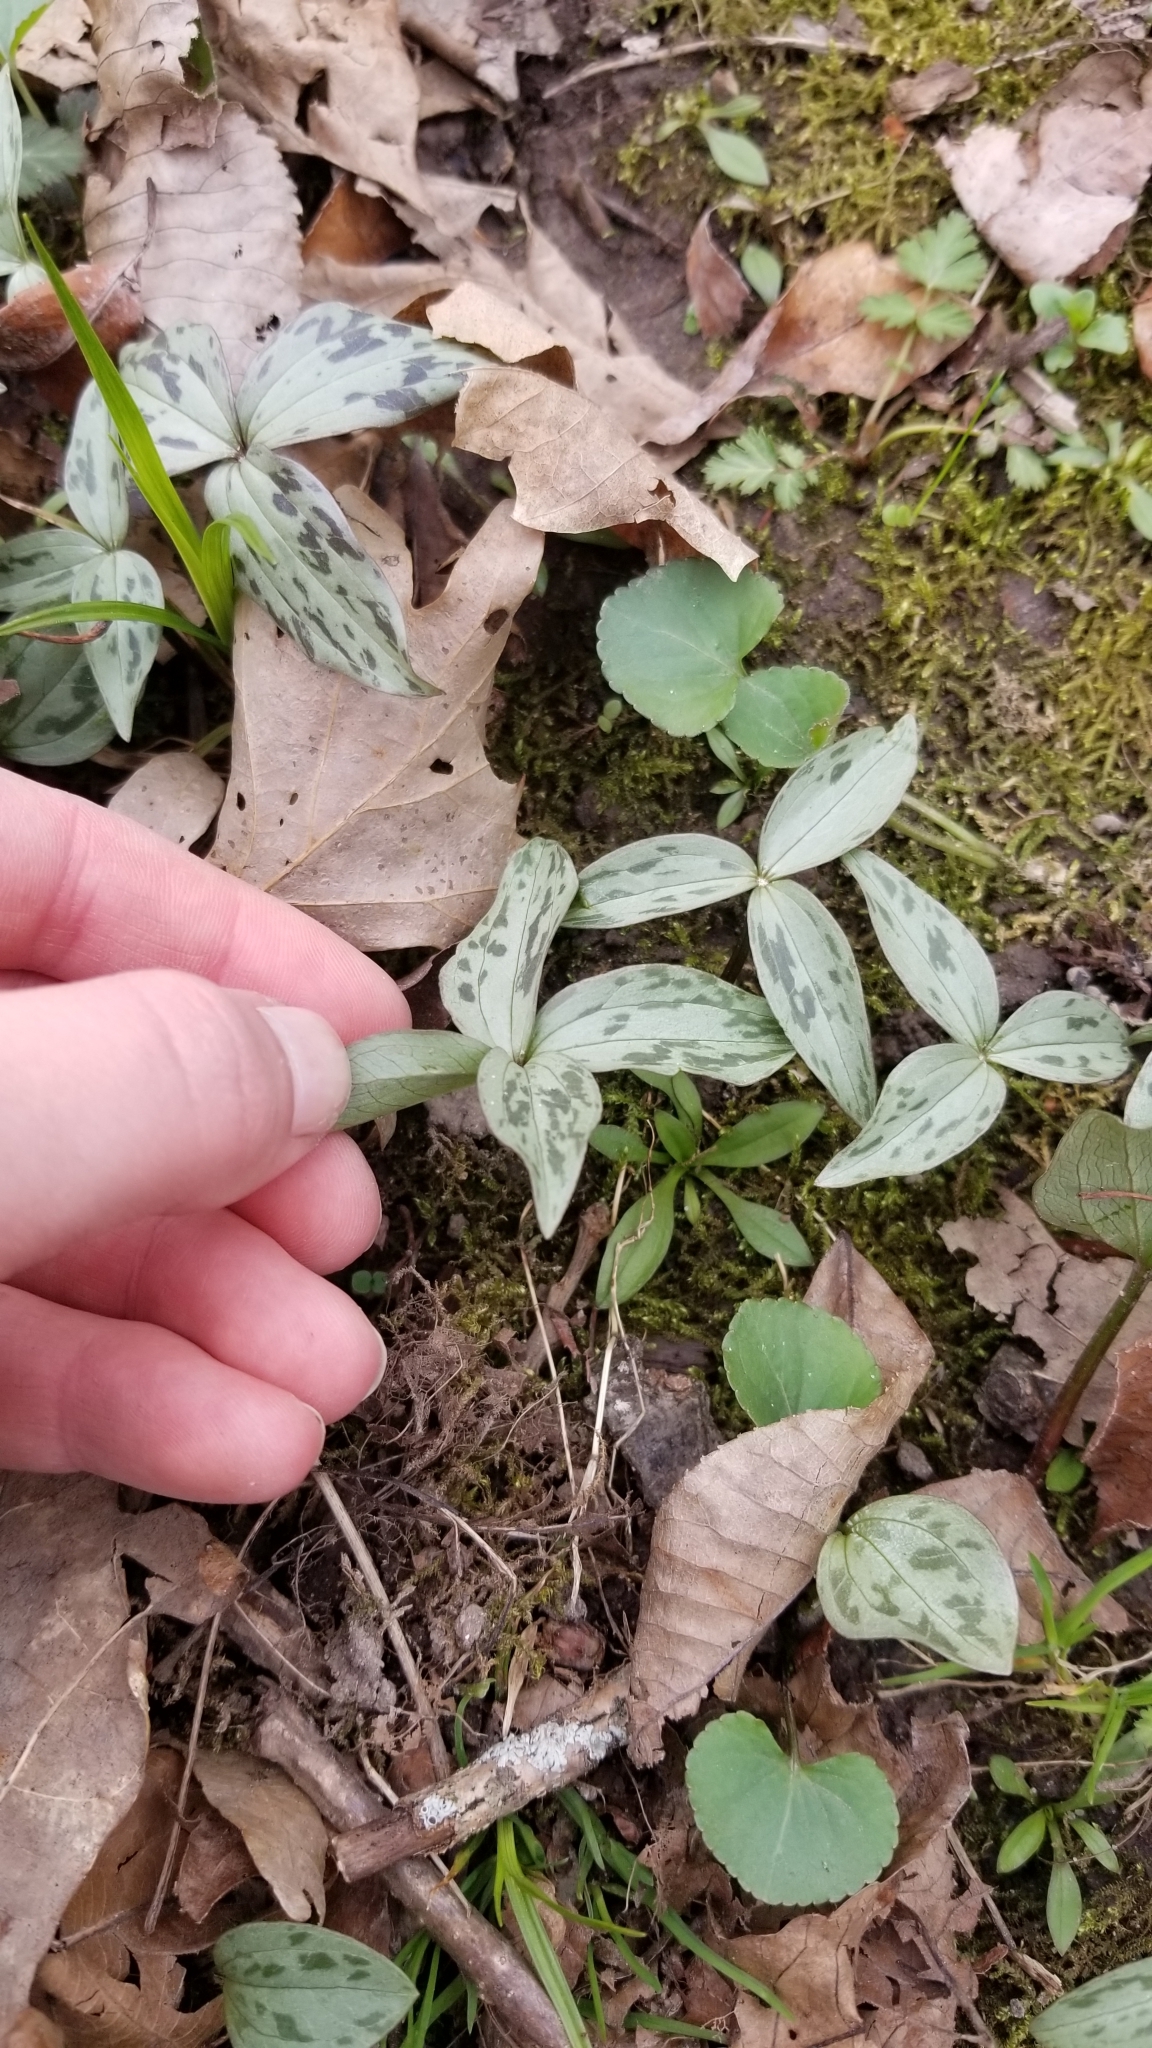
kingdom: Plantae
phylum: Tracheophyta
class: Liliopsida
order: Liliales
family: Melanthiaceae
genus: Trillium
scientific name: Trillium recurvatum
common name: Bloody butcher
